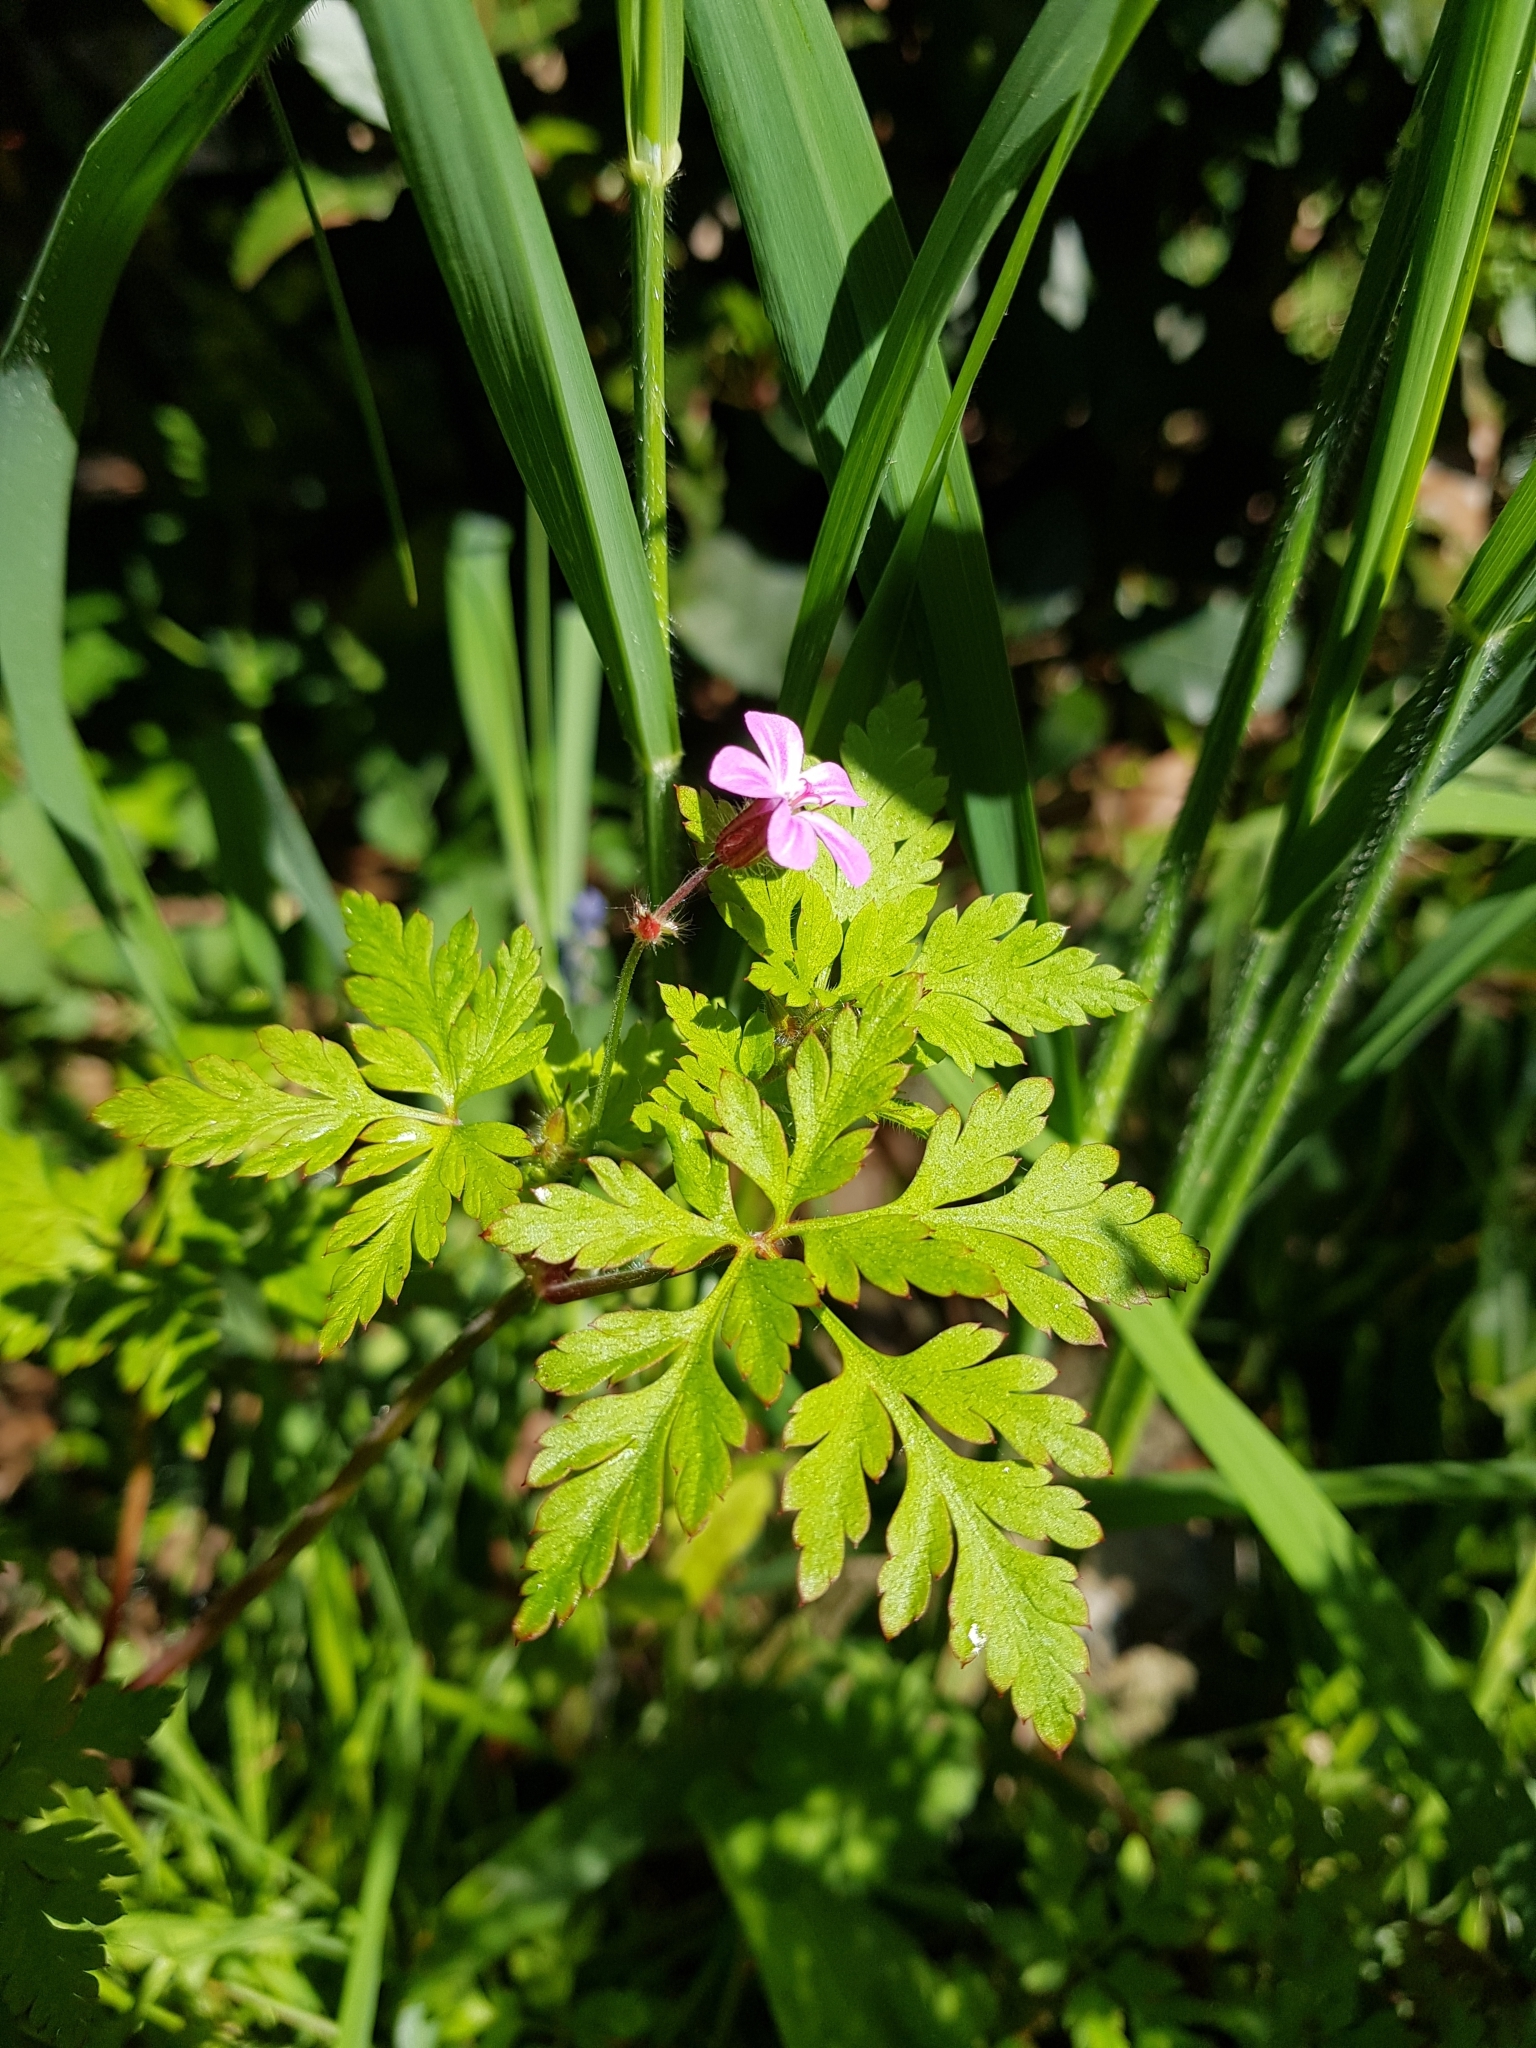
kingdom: Plantae
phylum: Tracheophyta
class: Magnoliopsida
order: Geraniales
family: Geraniaceae
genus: Geranium
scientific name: Geranium robertianum
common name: Herb-robert
